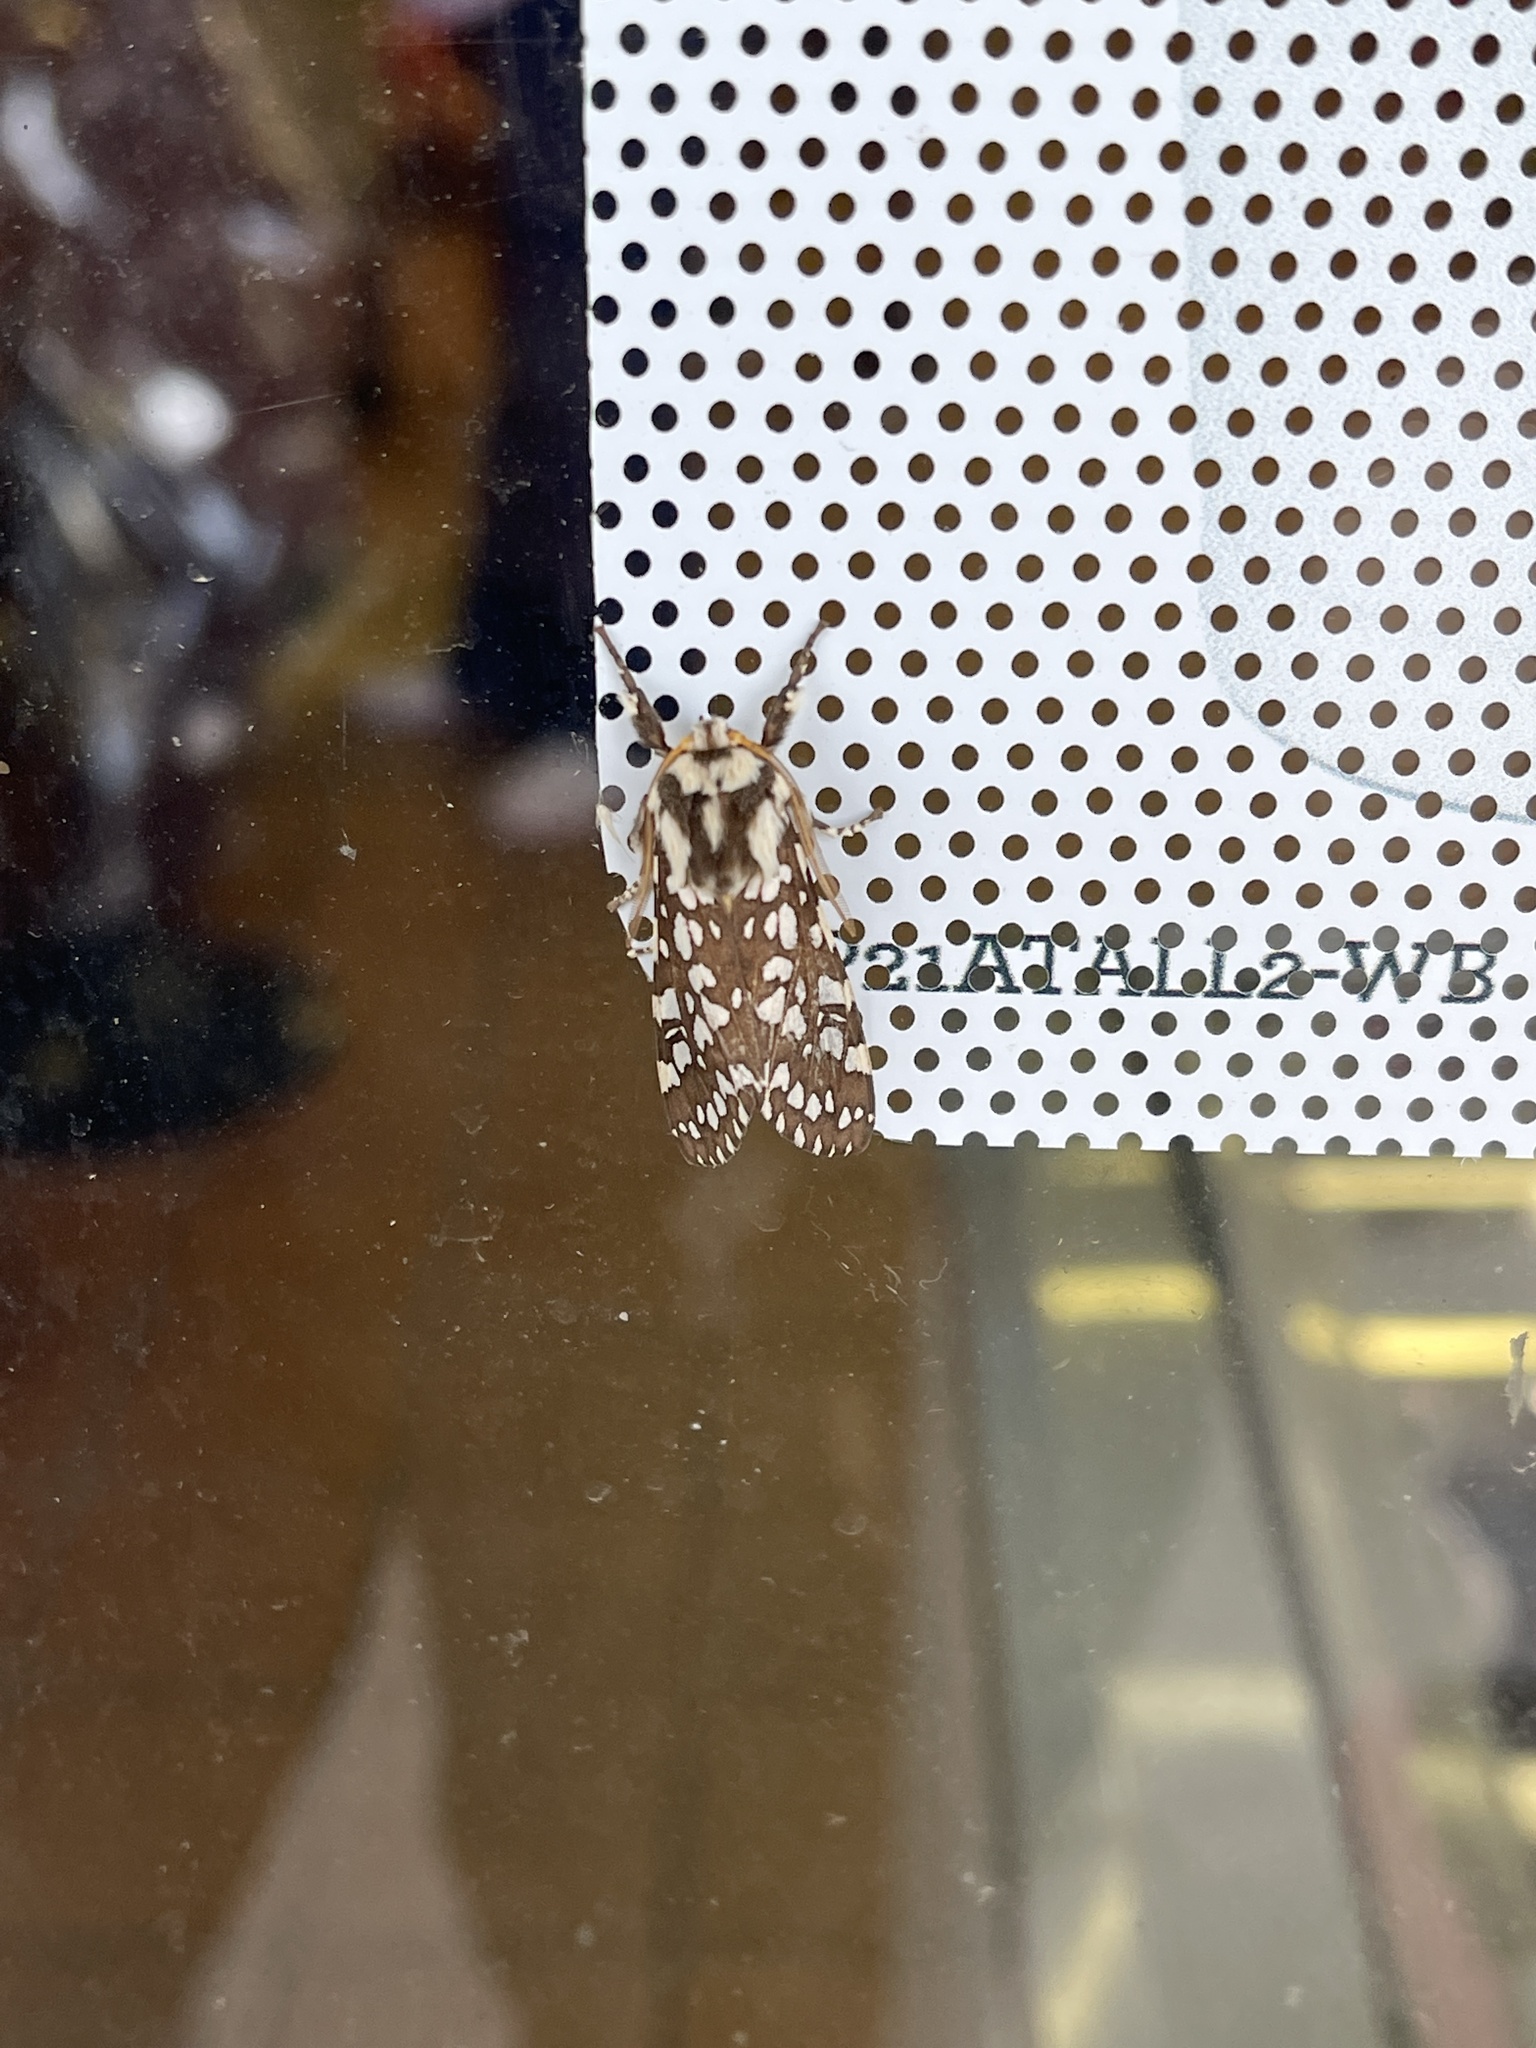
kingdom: Animalia
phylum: Arthropoda
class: Insecta
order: Lepidoptera
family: Erebidae
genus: Lophocampa
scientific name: Lophocampa ingens
